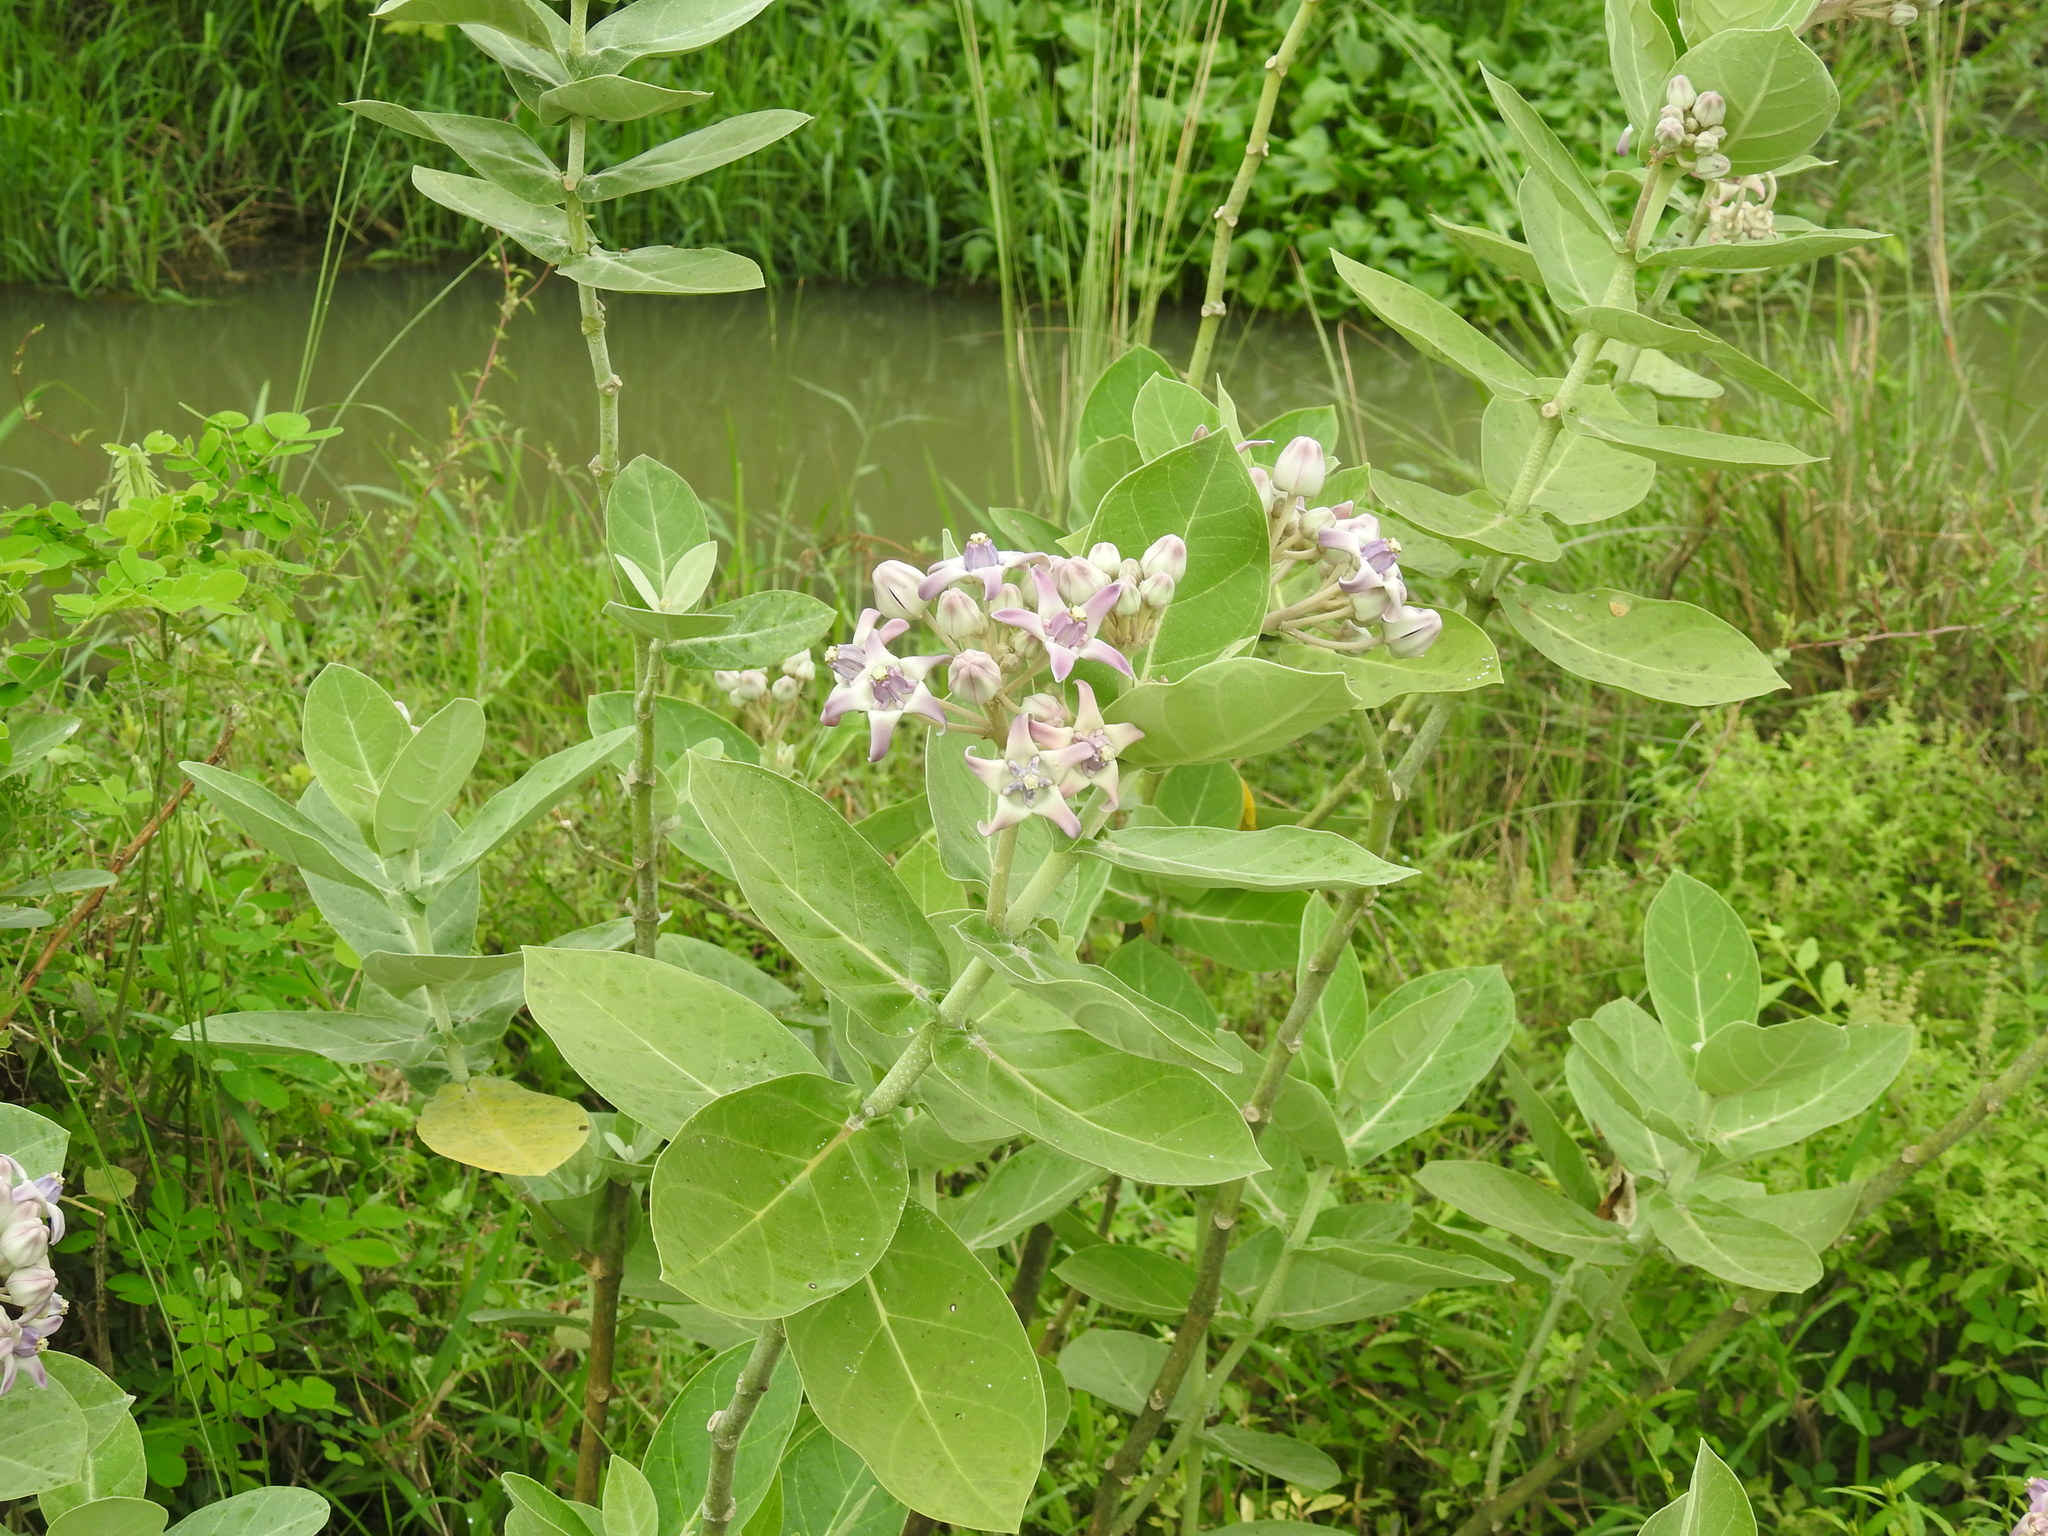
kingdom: Plantae
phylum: Tracheophyta
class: Magnoliopsida
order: Gentianales
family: Apocynaceae
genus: Calotropis
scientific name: Calotropis gigantea
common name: Crown flower
